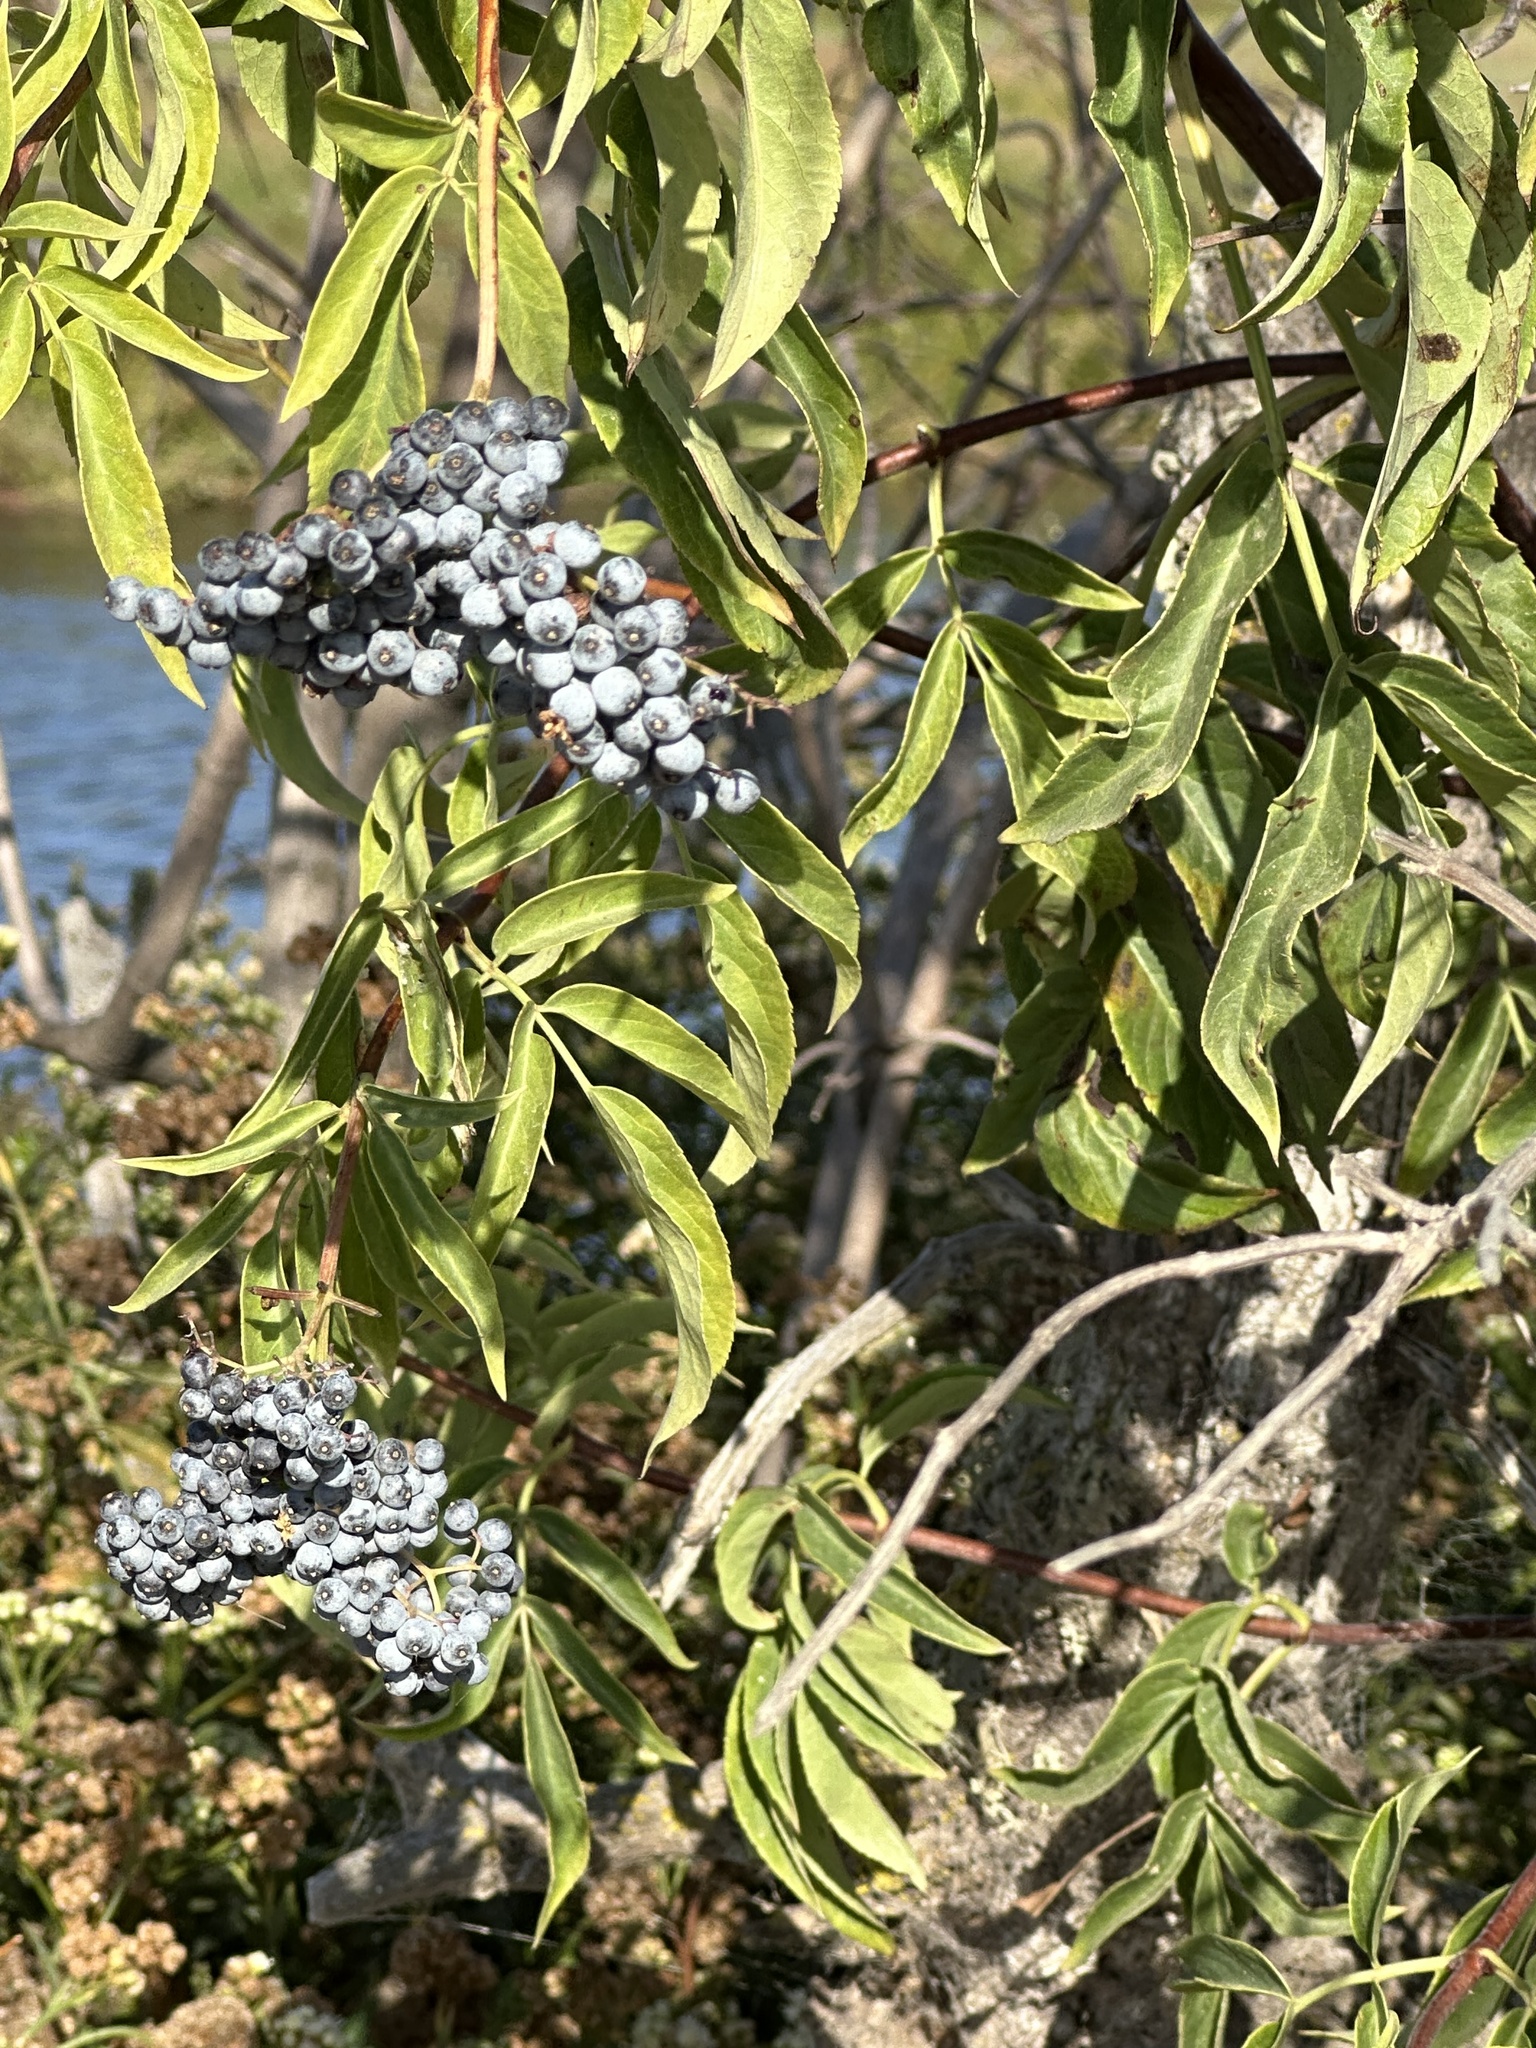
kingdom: Plantae
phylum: Tracheophyta
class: Magnoliopsida
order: Dipsacales
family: Viburnaceae
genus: Sambucus
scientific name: Sambucus cerulea
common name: Blue elder
